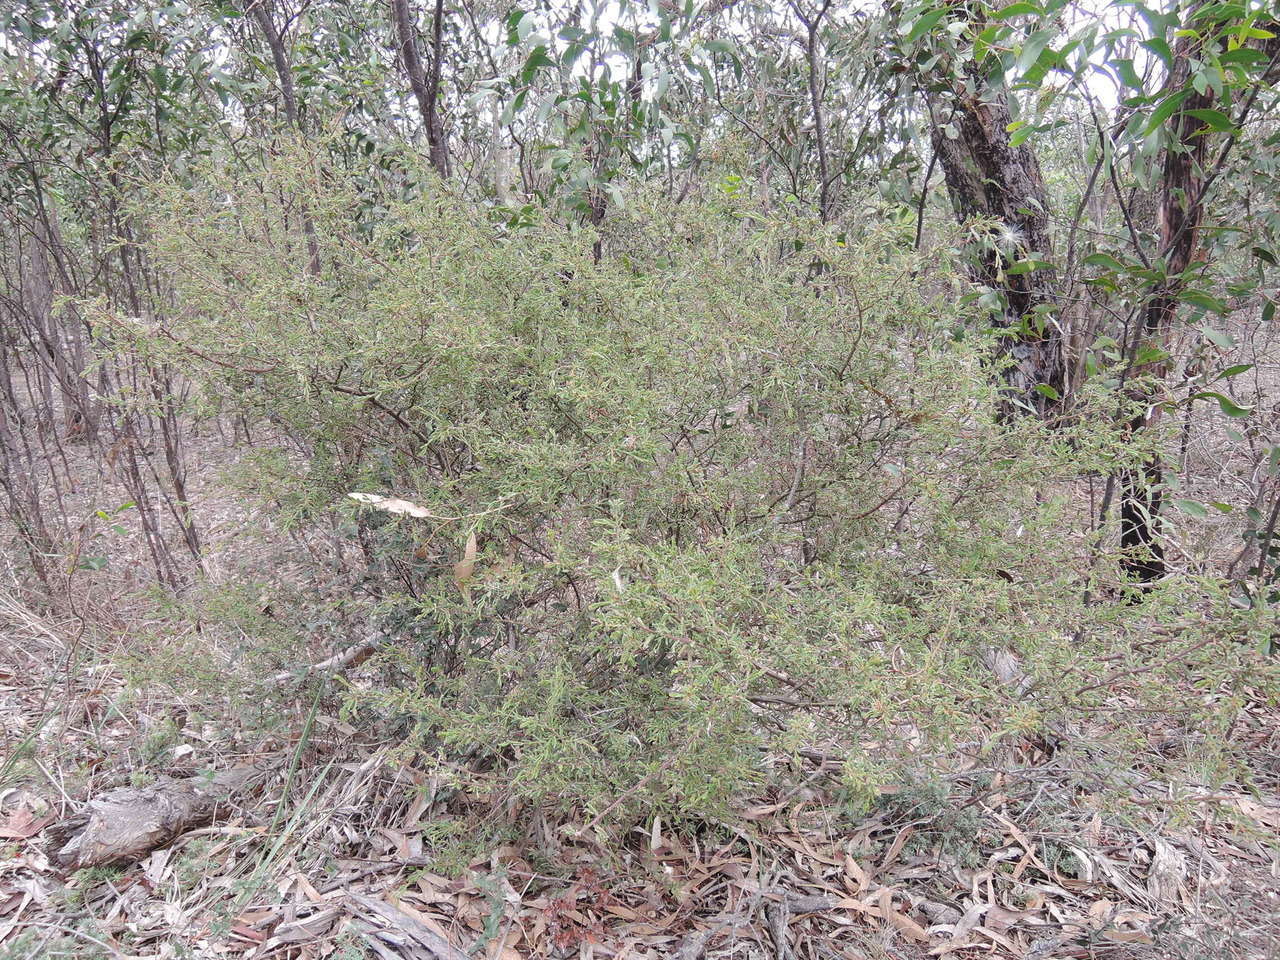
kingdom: Plantae
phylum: Tracheophyta
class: Magnoliopsida
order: Fabales
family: Fabaceae
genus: Acacia
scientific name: Acacia aspera
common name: Rough wattle
